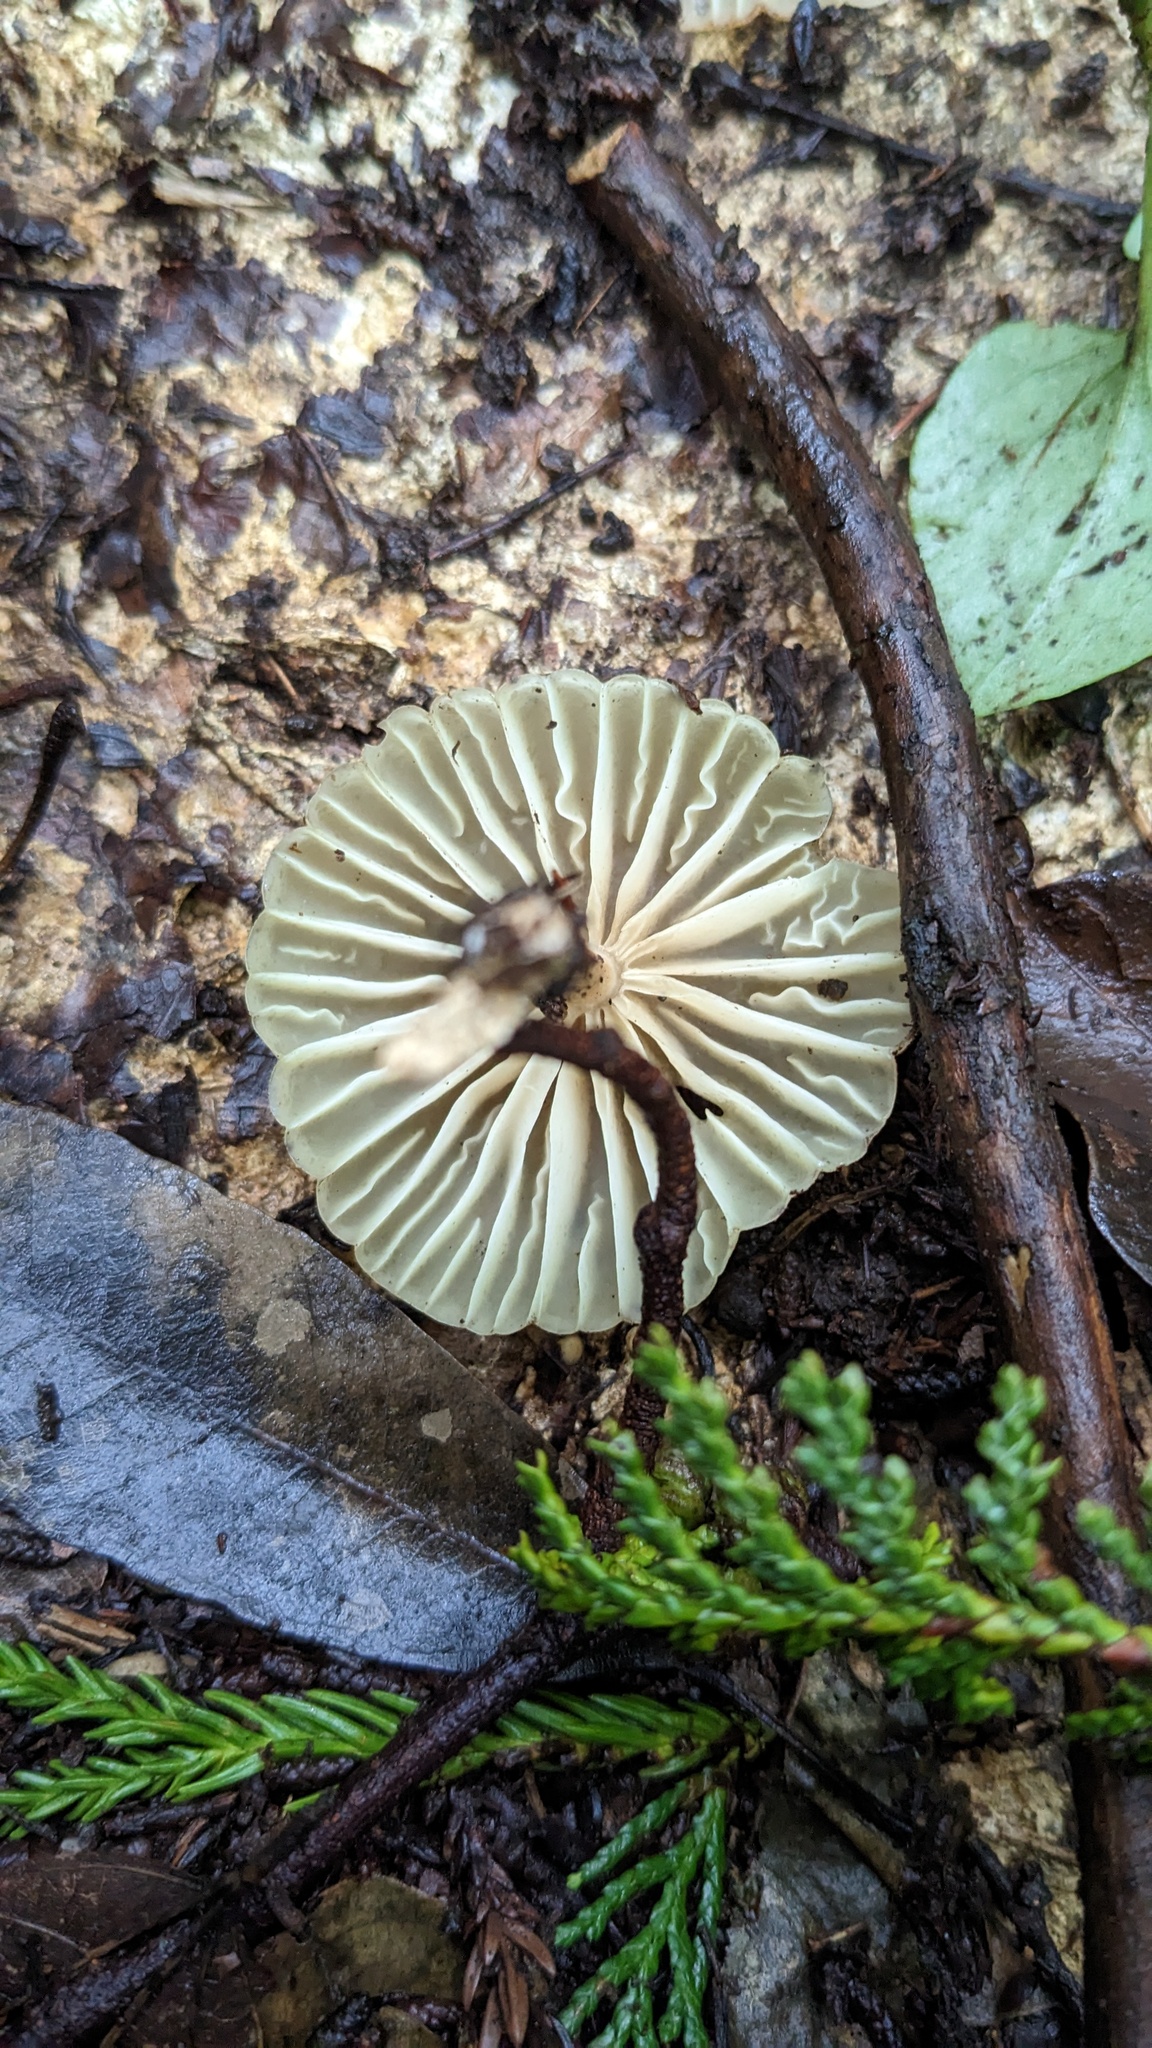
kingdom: Fungi
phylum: Basidiomycota
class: Agaricomycetes
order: Agaricales
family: Marasmiaceae
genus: Marasmius
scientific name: Marasmius maximus
